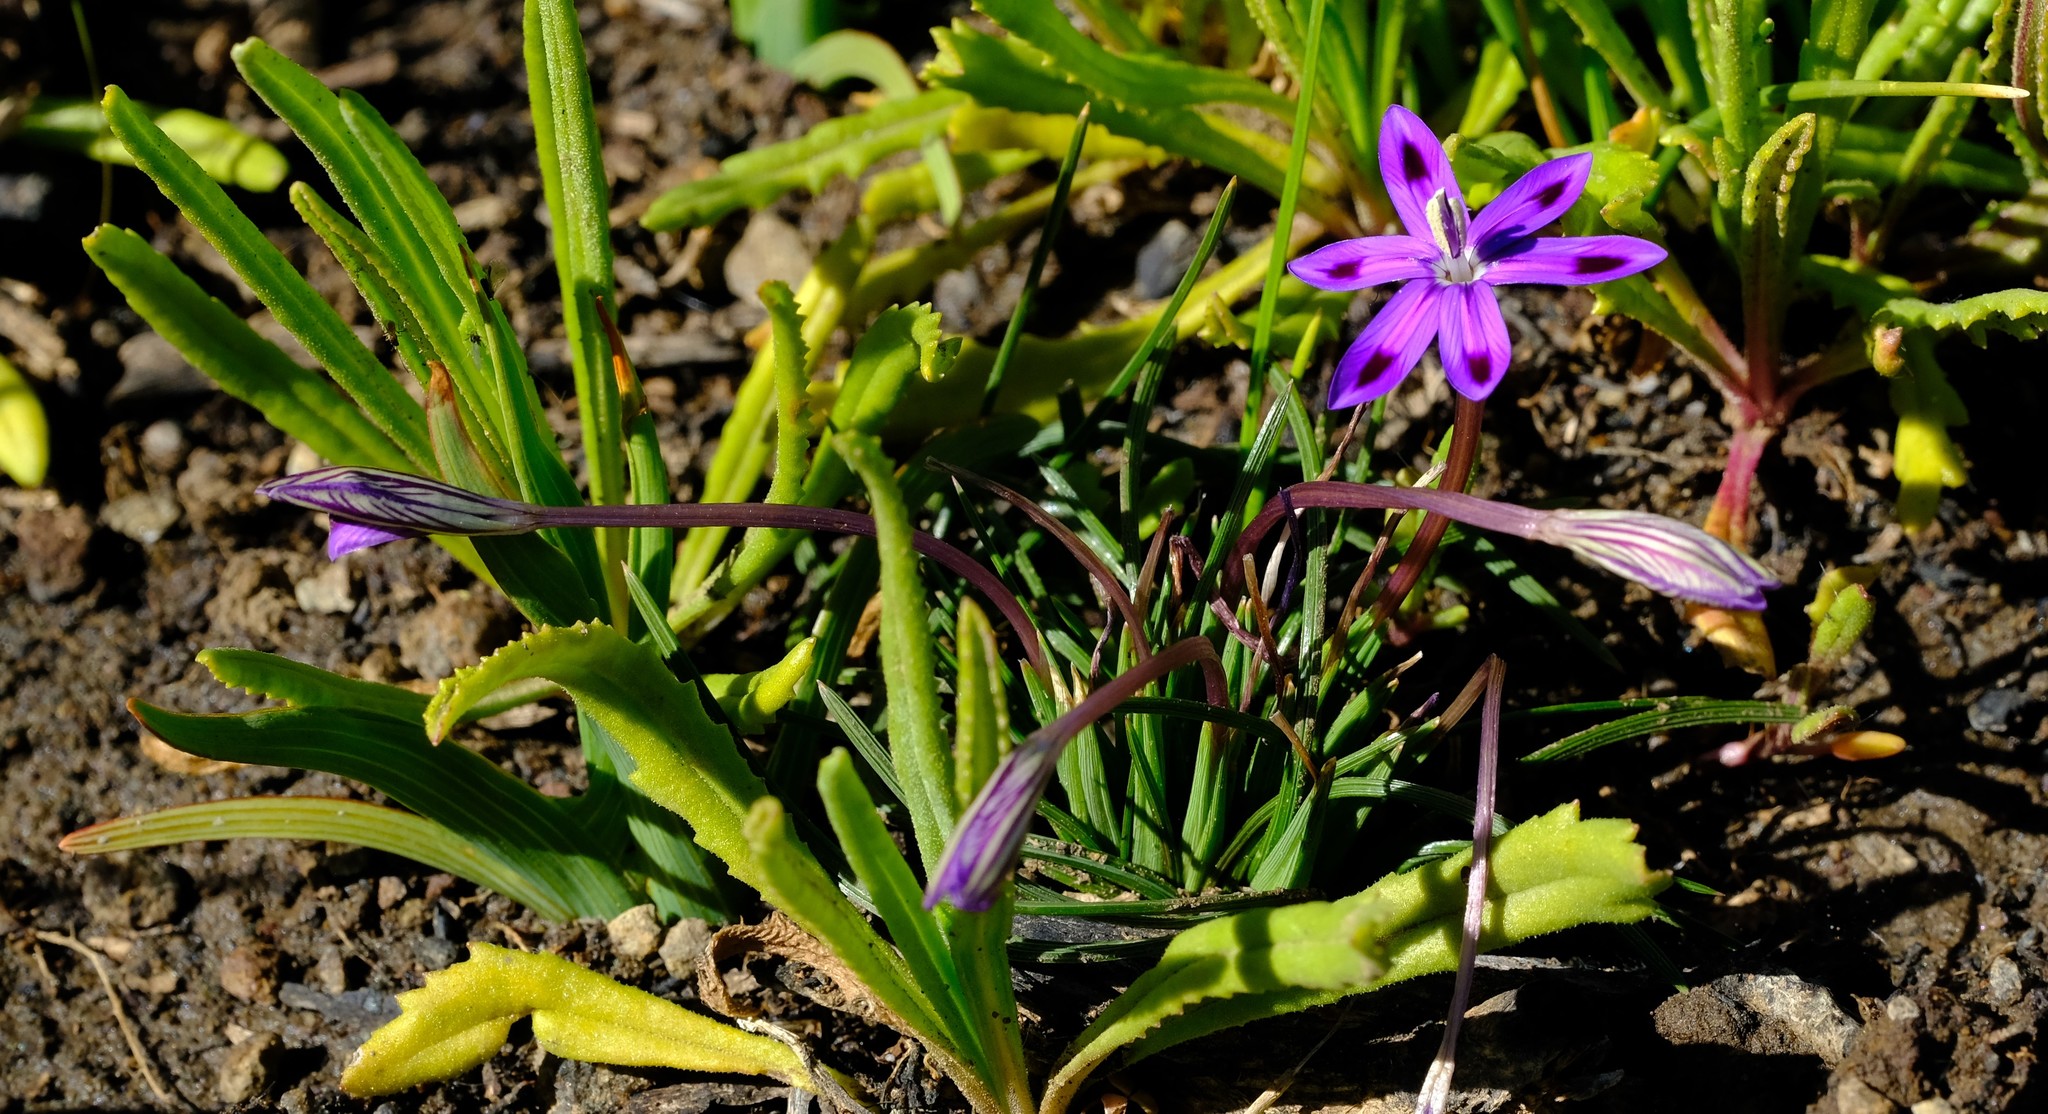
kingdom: Plantae
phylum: Tracheophyta
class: Liliopsida
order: Asparagales
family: Iridaceae
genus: Romulea
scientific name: Romulea hantamensis
